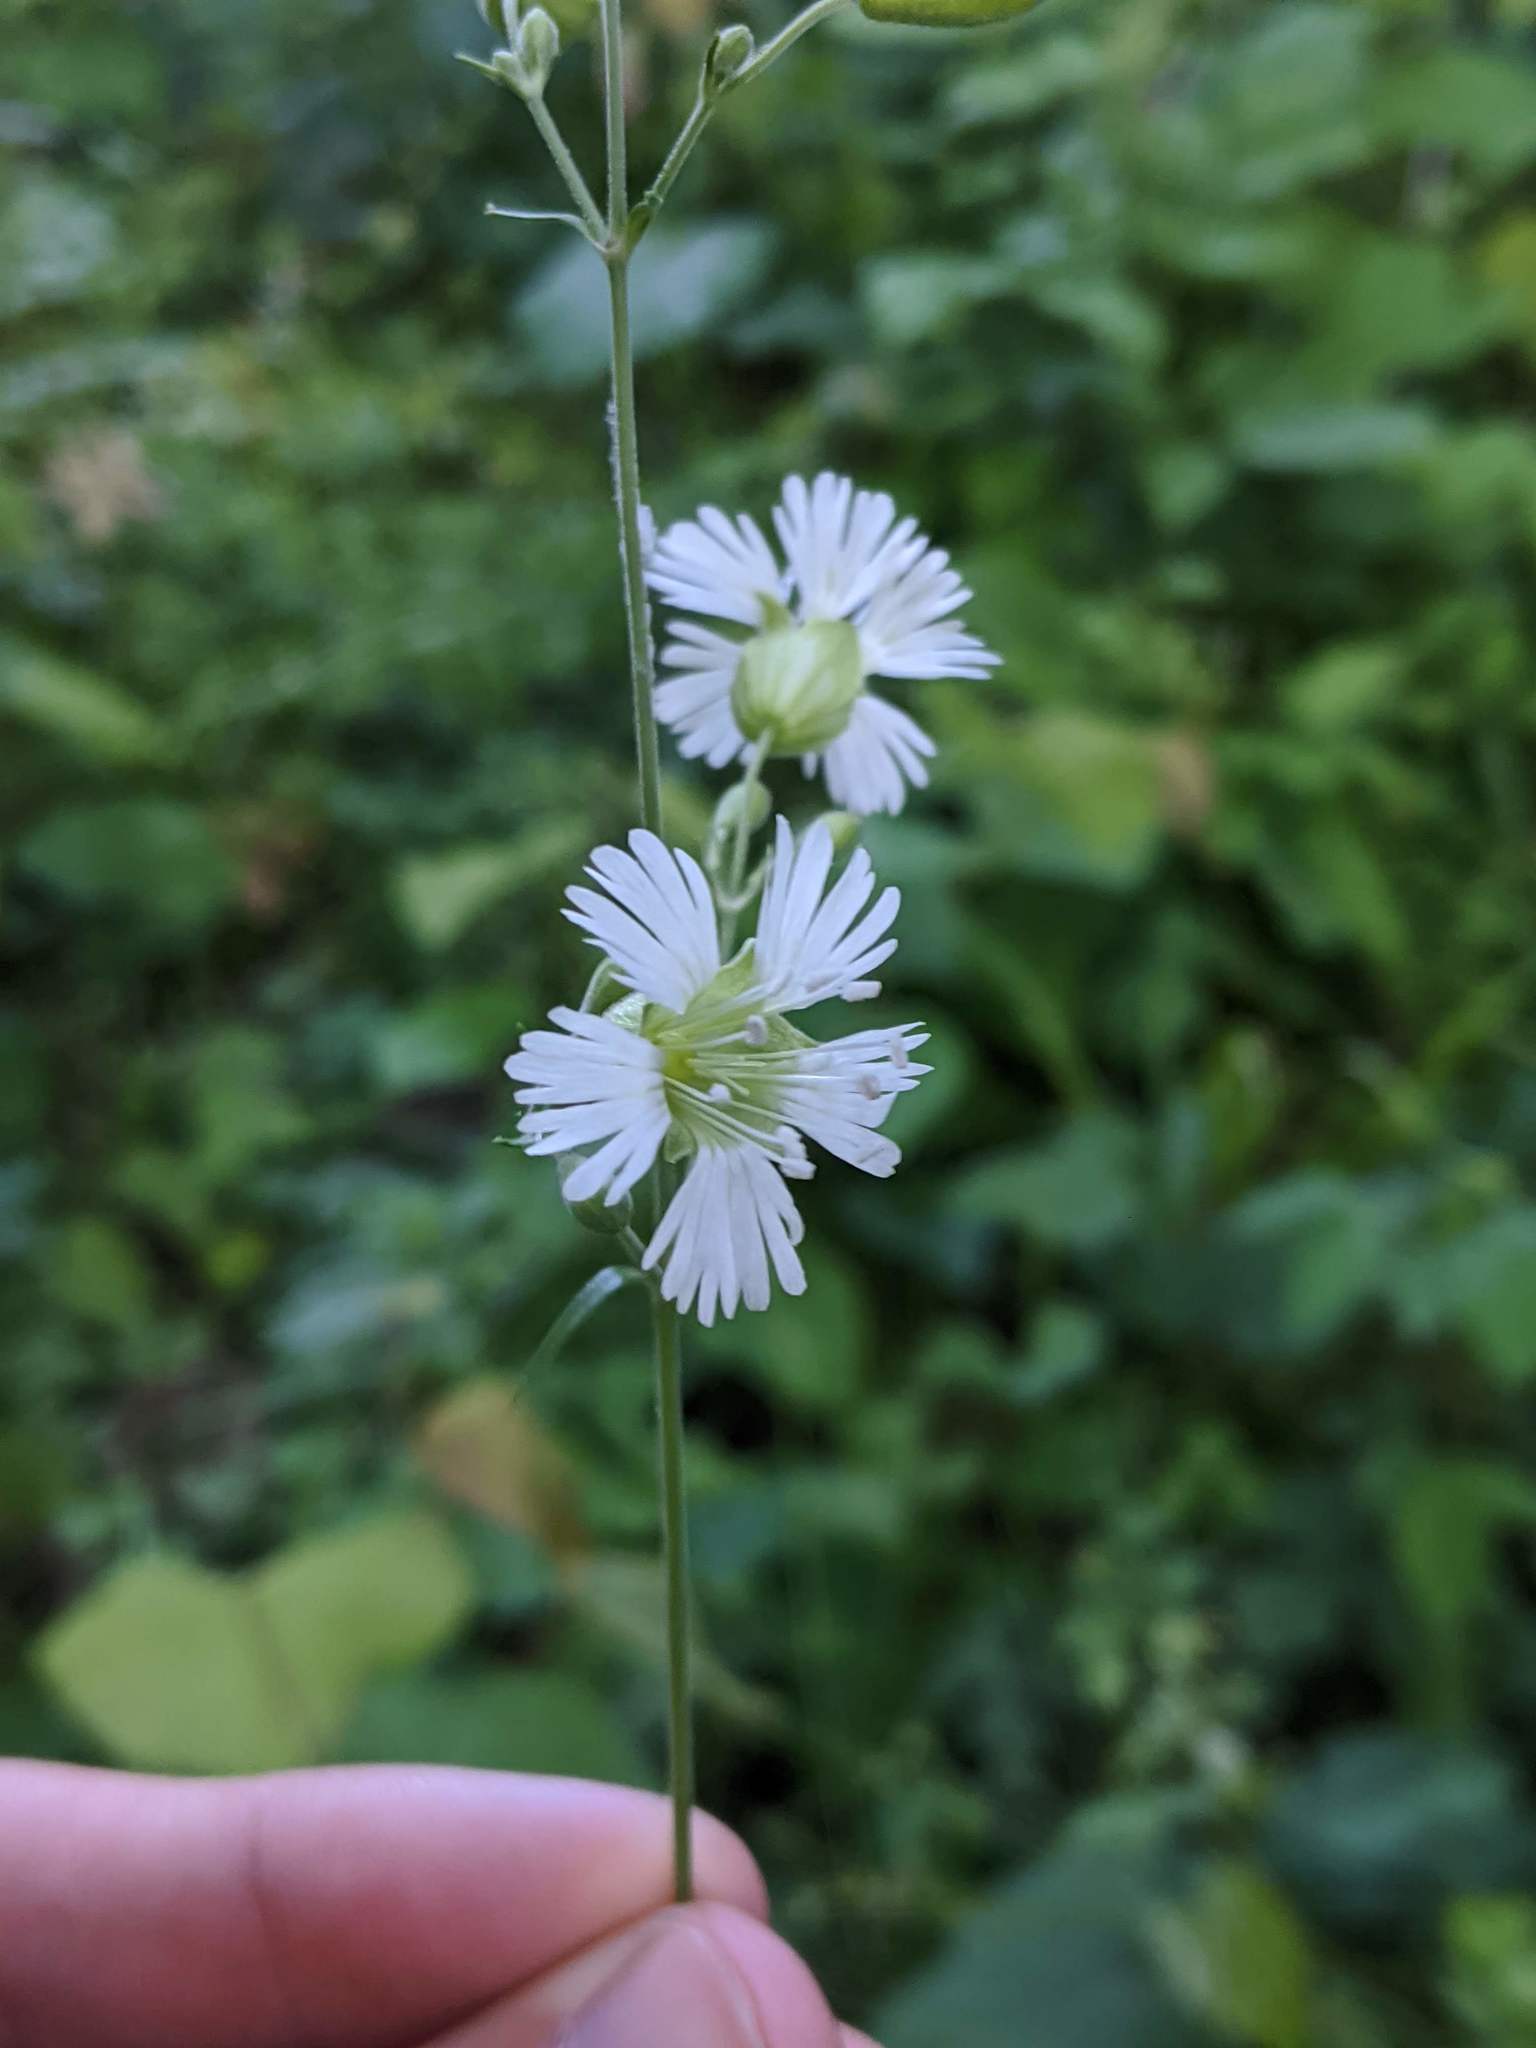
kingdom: Plantae
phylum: Tracheophyta
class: Magnoliopsida
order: Caryophyllales
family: Caryophyllaceae
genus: Silene
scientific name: Silene stellata
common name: Starry campion
